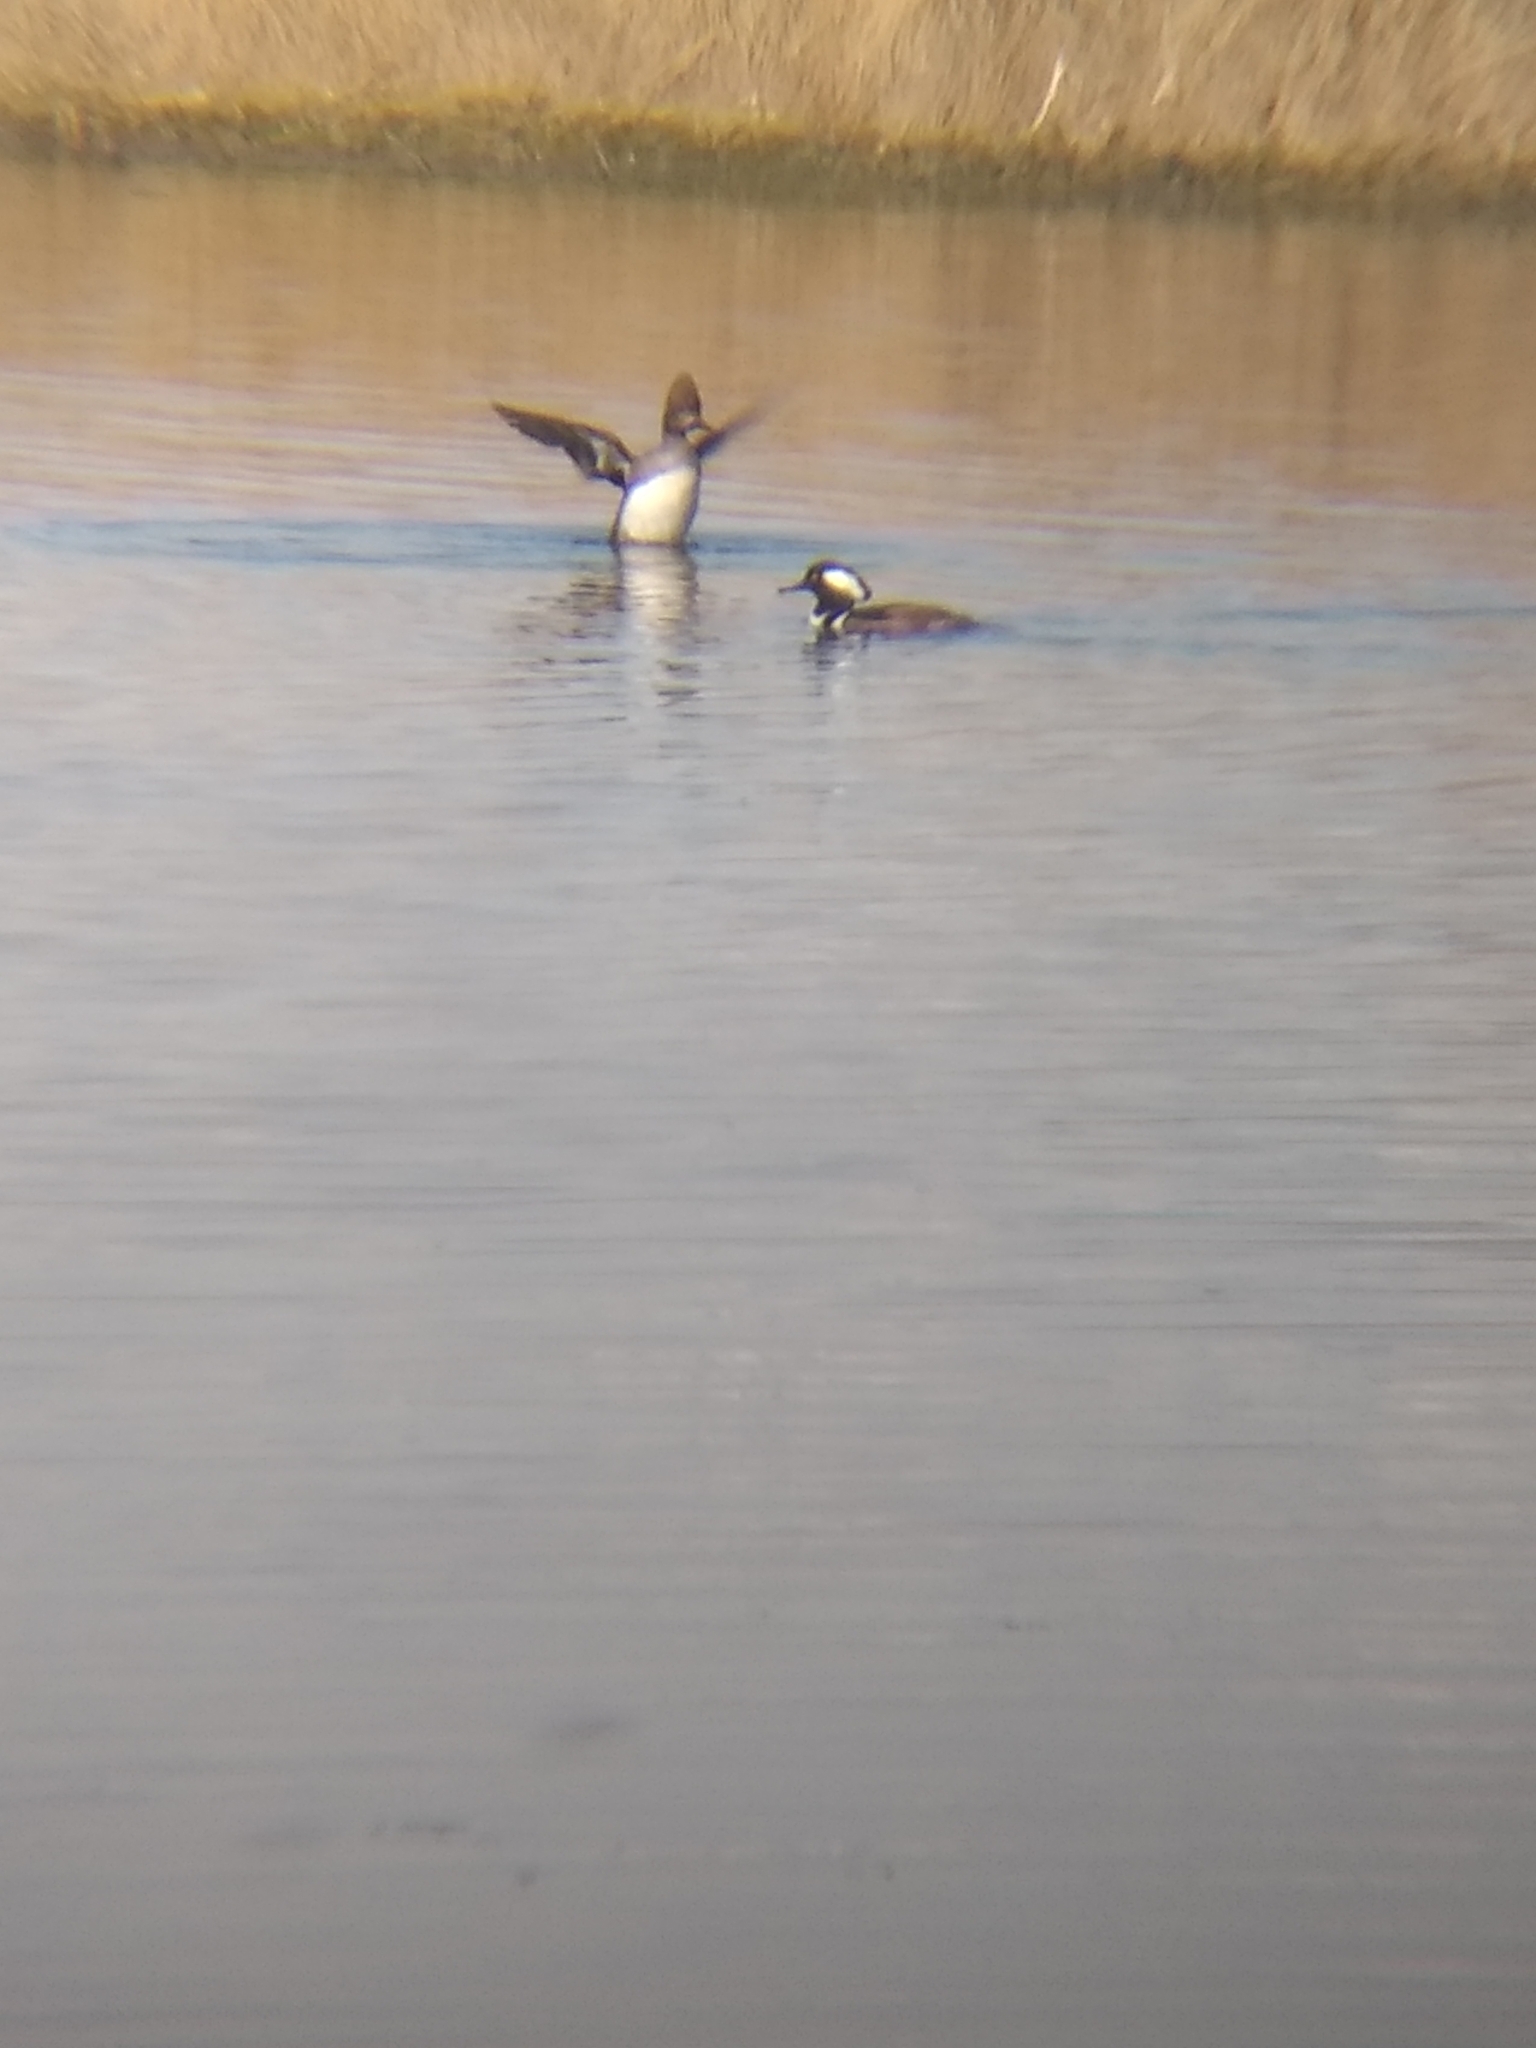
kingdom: Animalia
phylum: Chordata
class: Aves
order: Anseriformes
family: Anatidae
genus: Lophodytes
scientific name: Lophodytes cucullatus
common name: Hooded merganser
